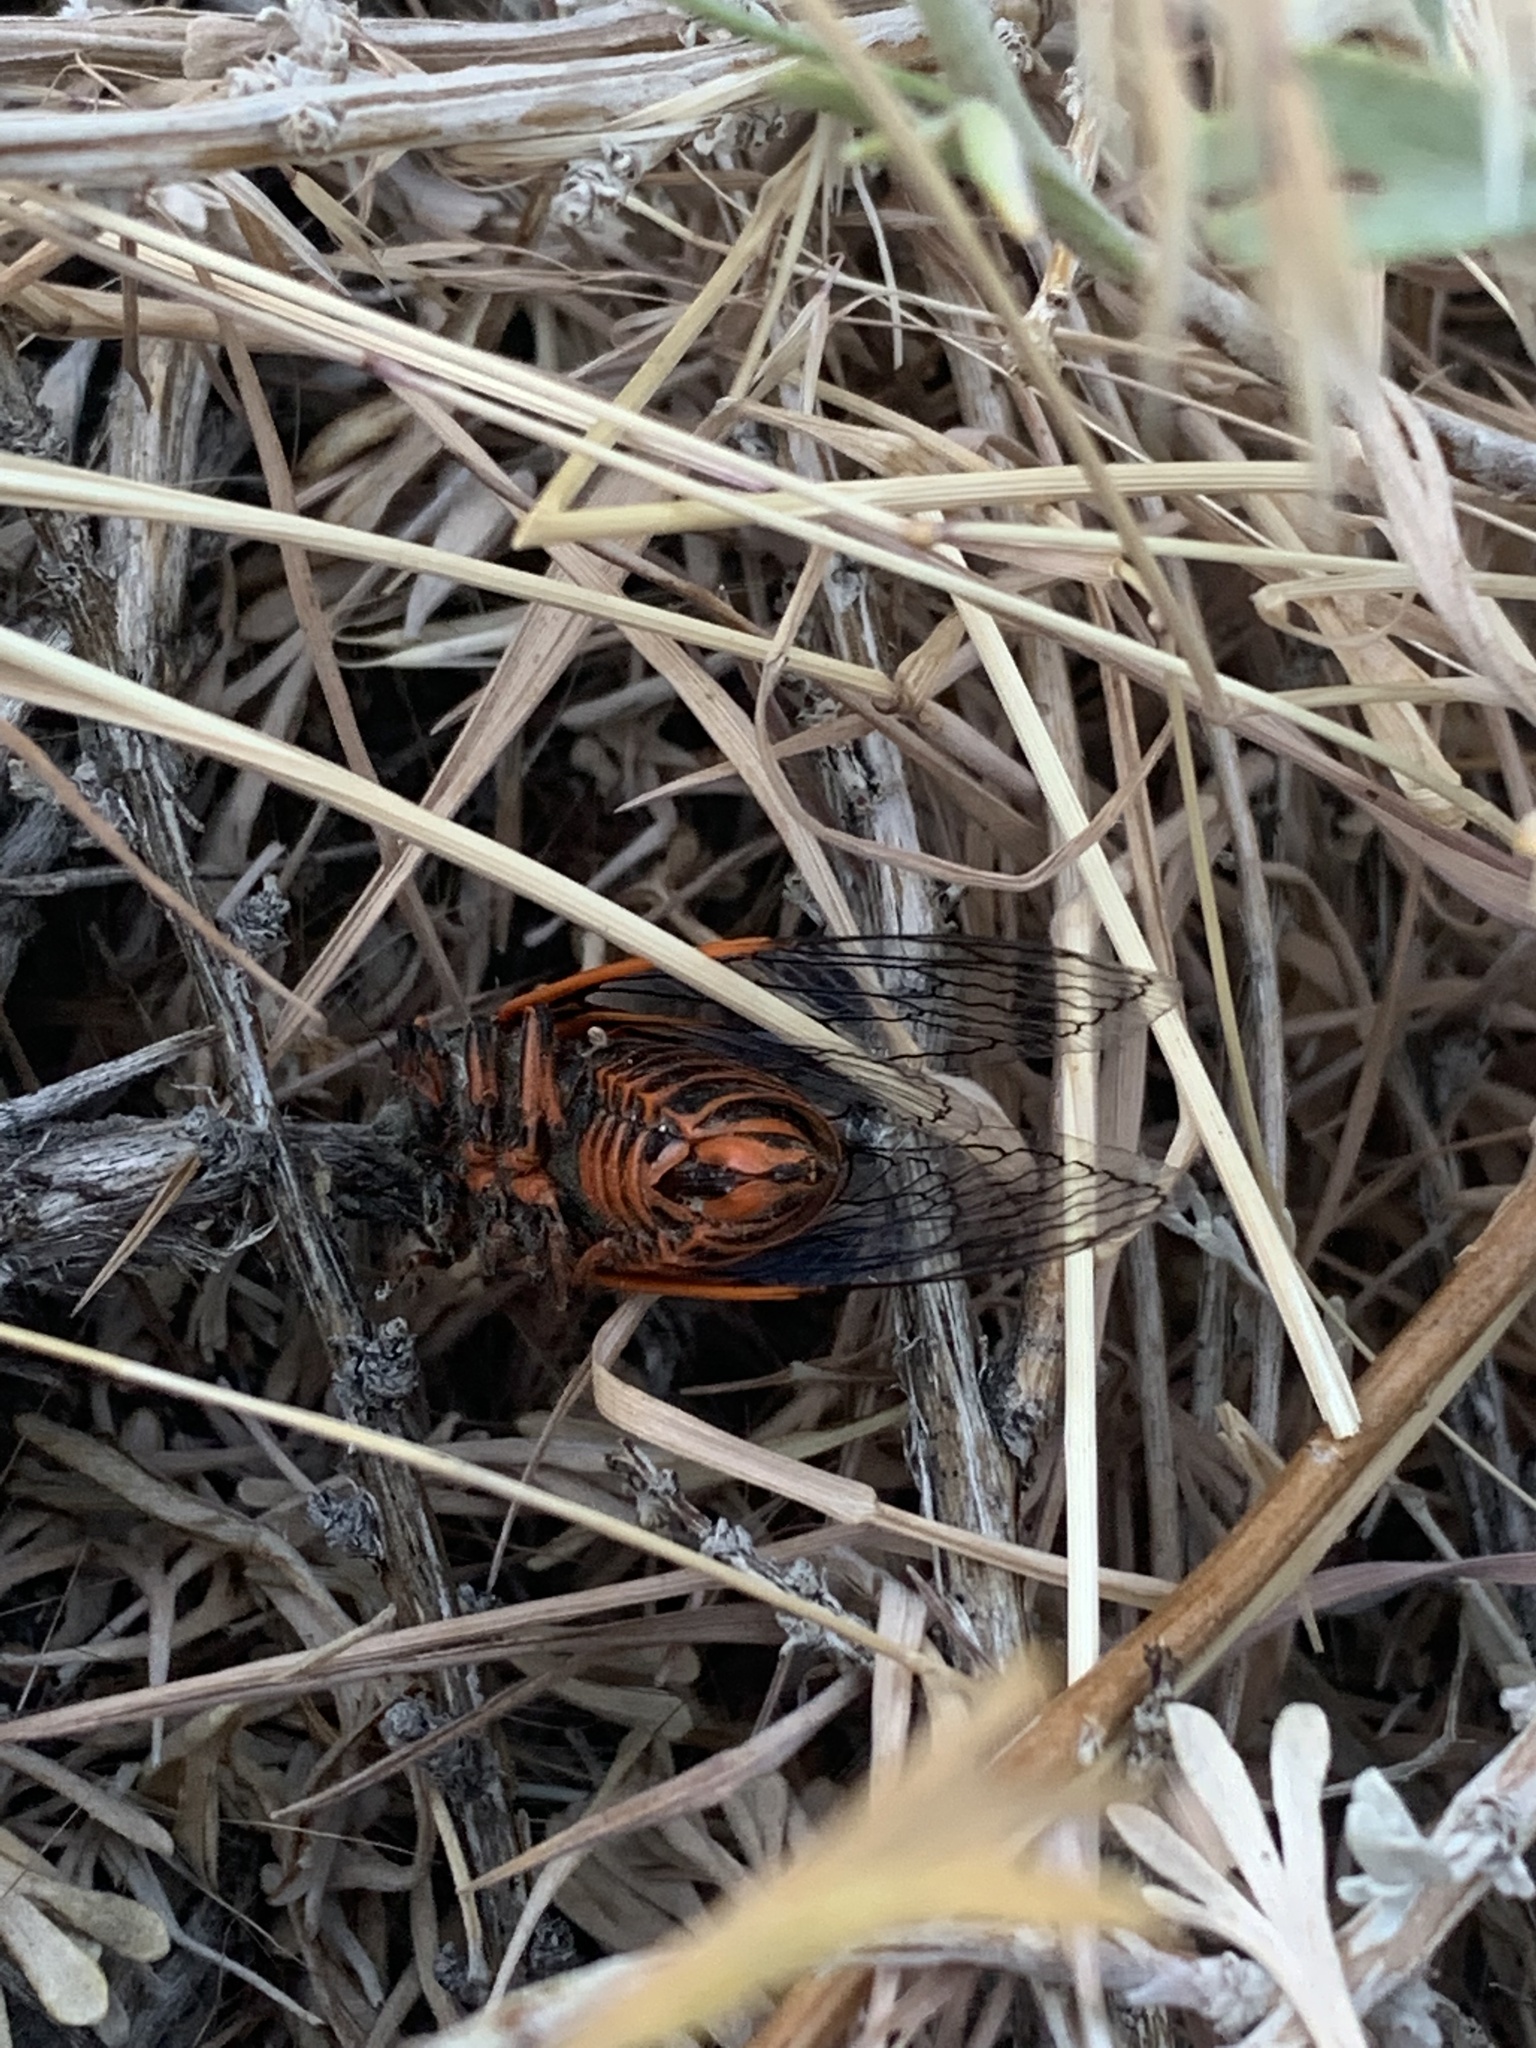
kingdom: Animalia
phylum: Arthropoda
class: Insecta
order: Hemiptera
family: Cicadidae
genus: Okanagana
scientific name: Okanagana cruentifera
